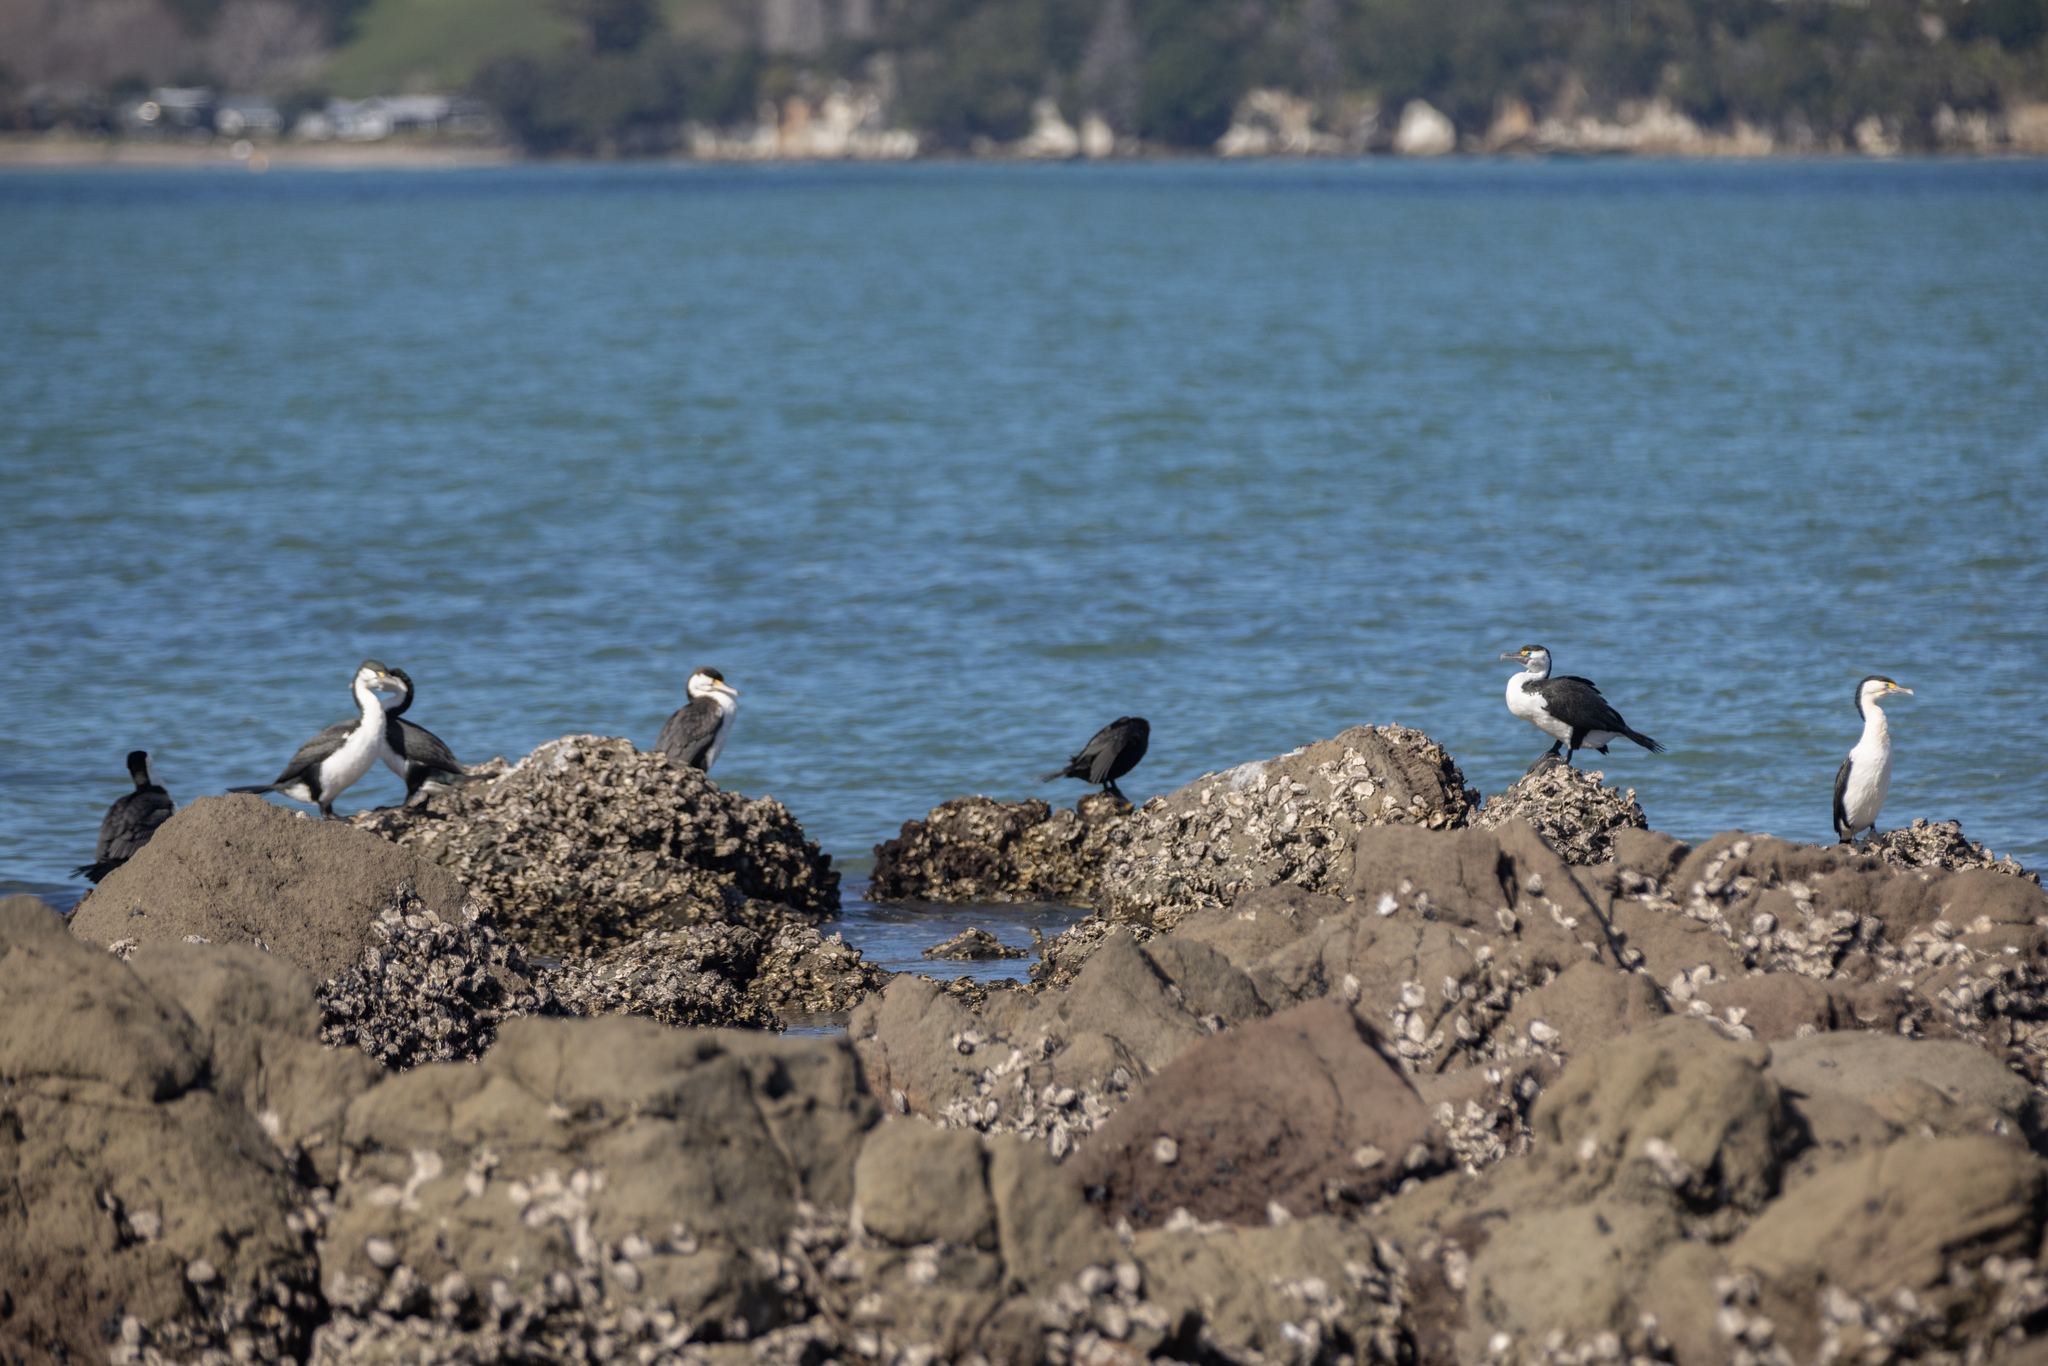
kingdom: Animalia
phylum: Chordata
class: Aves
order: Suliformes
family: Phalacrocoracidae
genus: Phalacrocorax
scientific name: Phalacrocorax varius
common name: Pied cormorant
